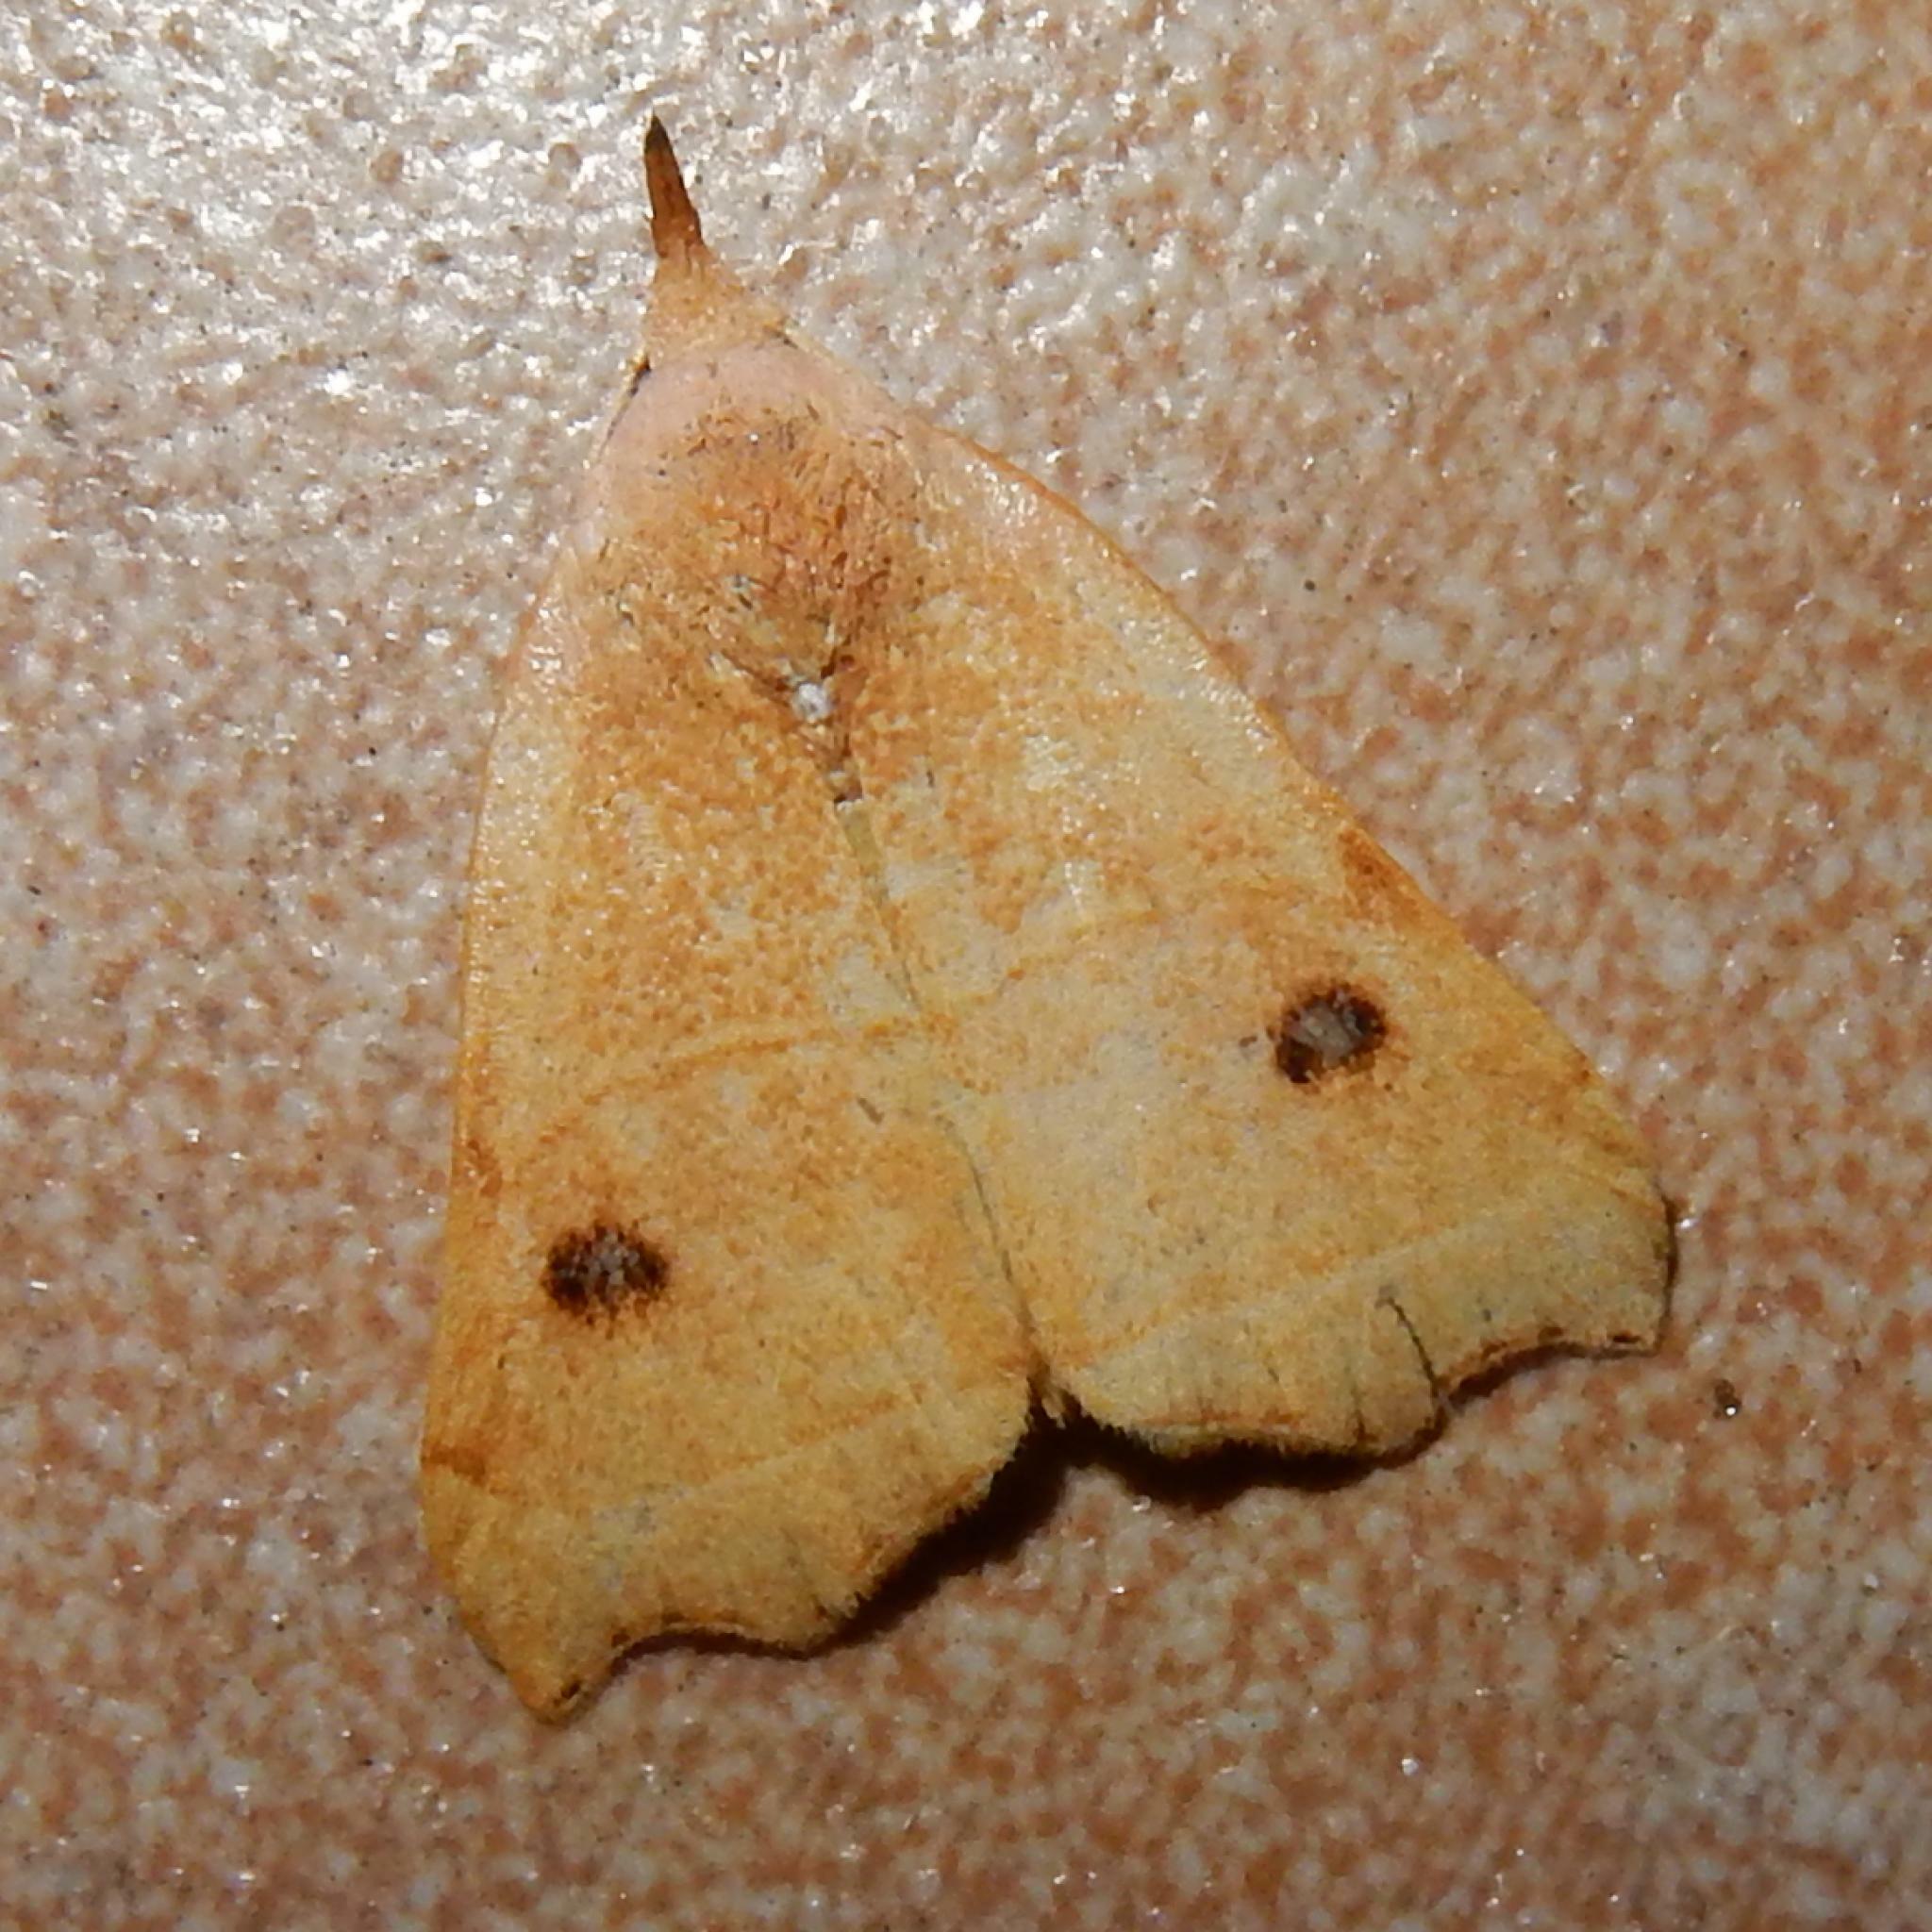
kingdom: Animalia
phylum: Arthropoda
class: Insecta
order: Lepidoptera
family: Erebidae
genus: Hondryches
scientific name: Hondryches phalaeniformis
